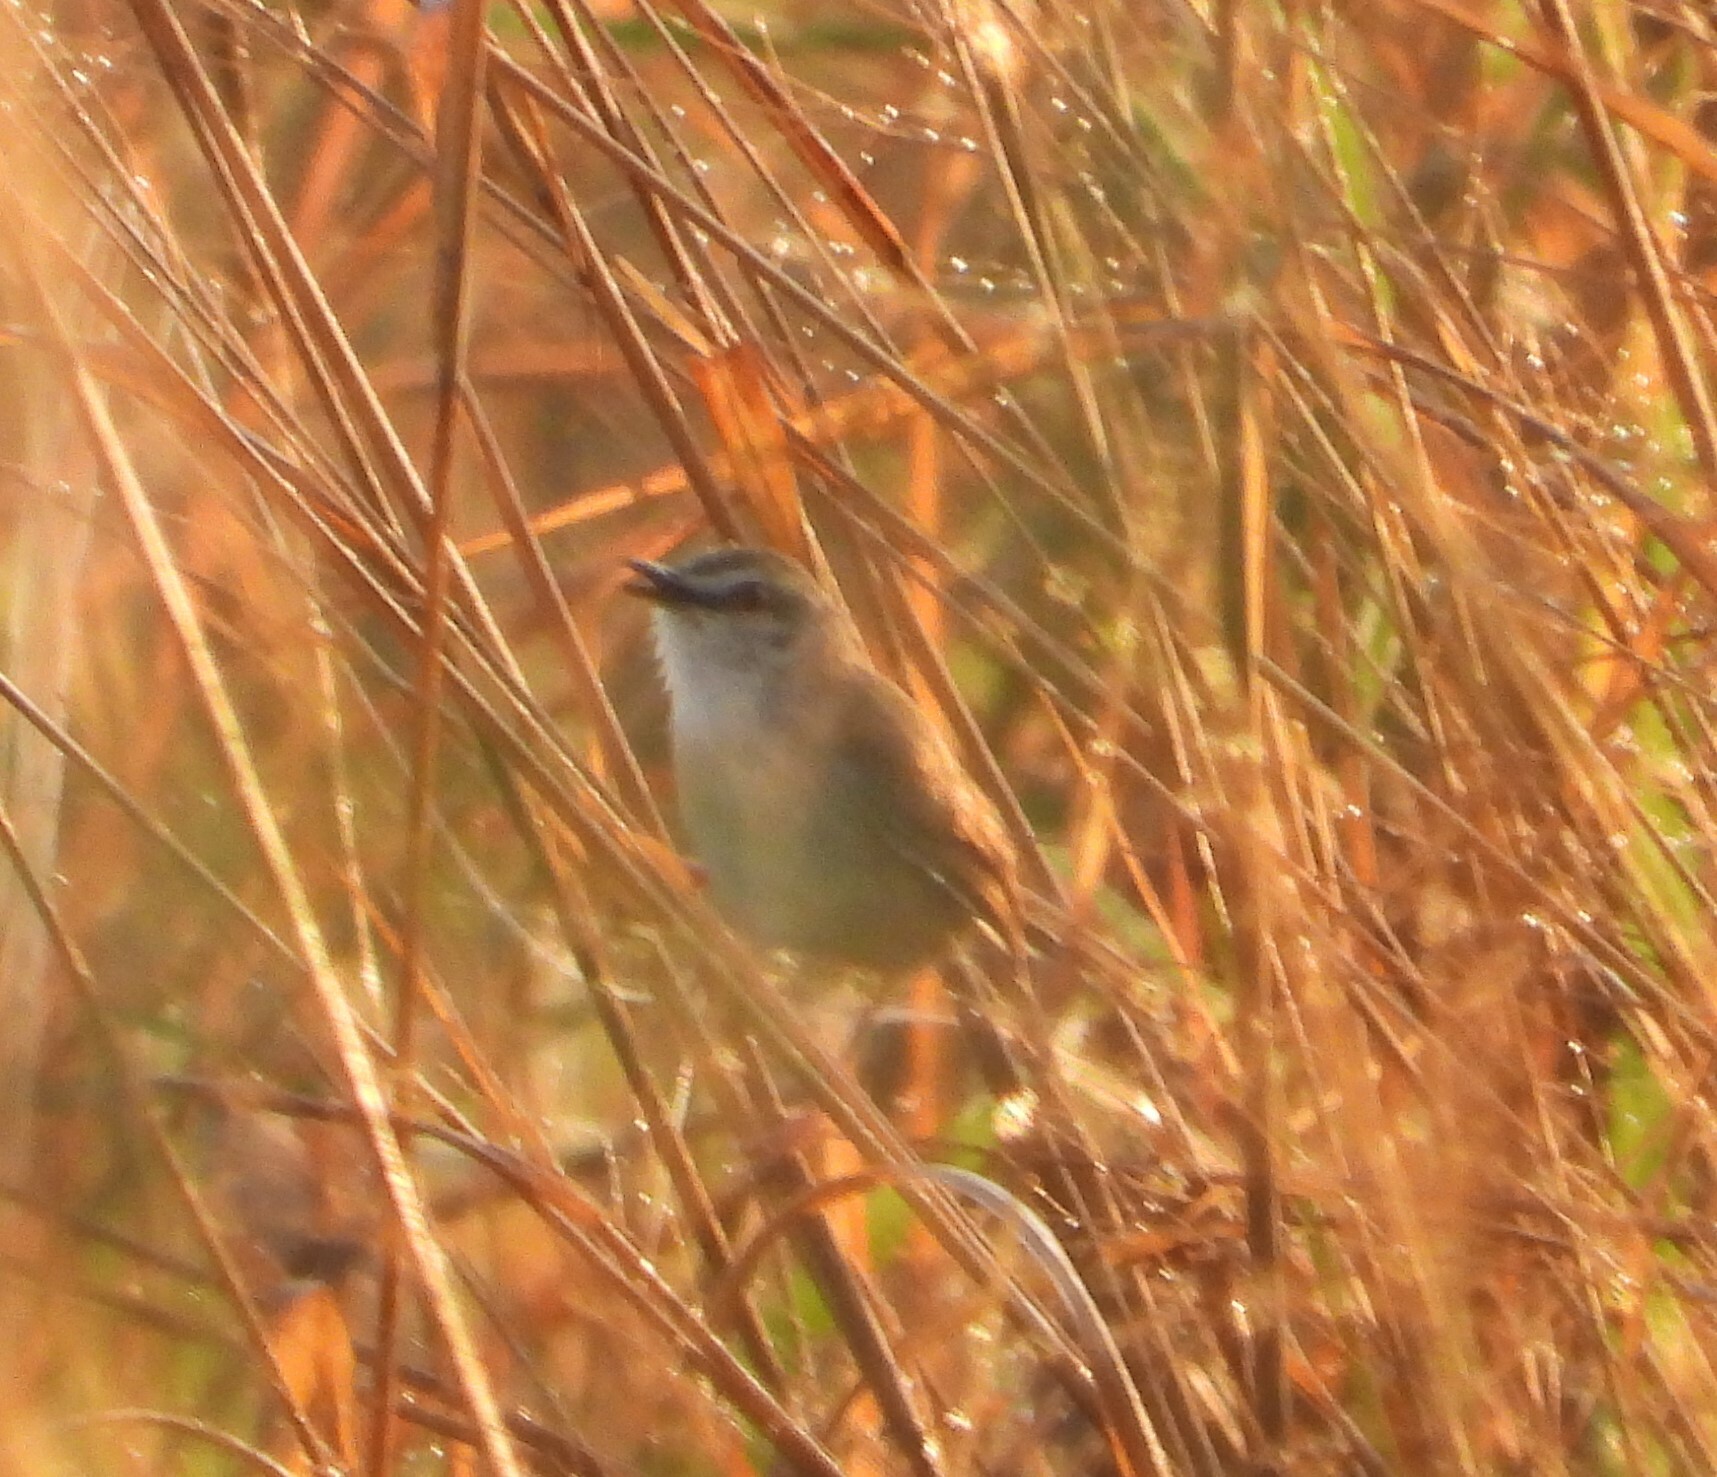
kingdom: Animalia
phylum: Chordata
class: Aves
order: Passeriformes
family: Cisticolidae
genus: Prinia
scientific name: Prinia subflava
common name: Tawny-flanked prinia
